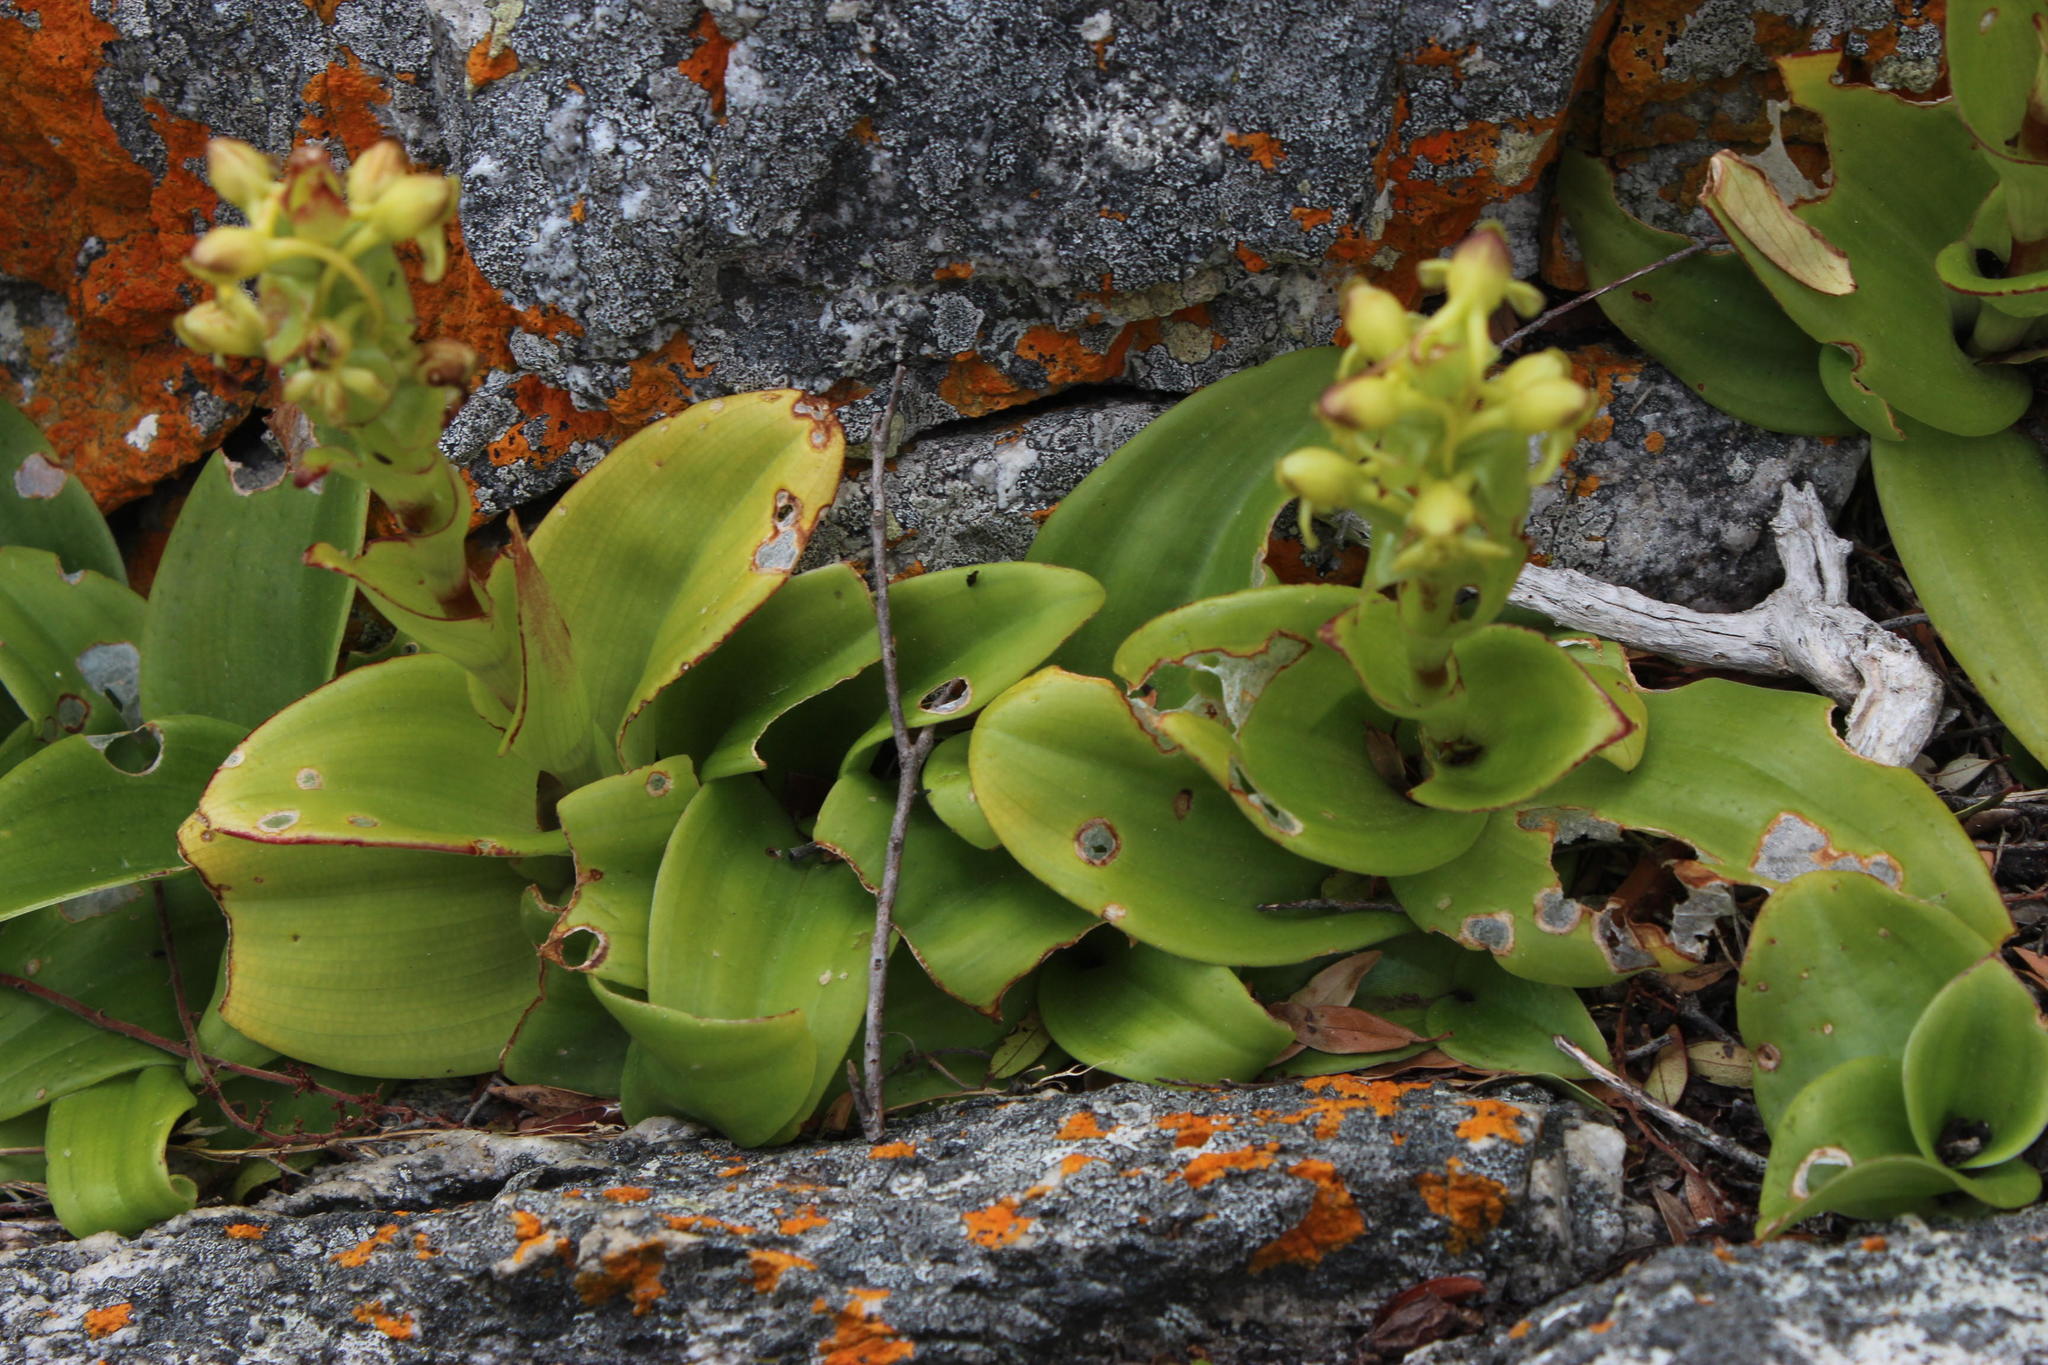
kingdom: Plantae
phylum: Tracheophyta
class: Liliopsida
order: Asparagales
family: Orchidaceae
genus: Satyrium
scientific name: Satyrium odorum
